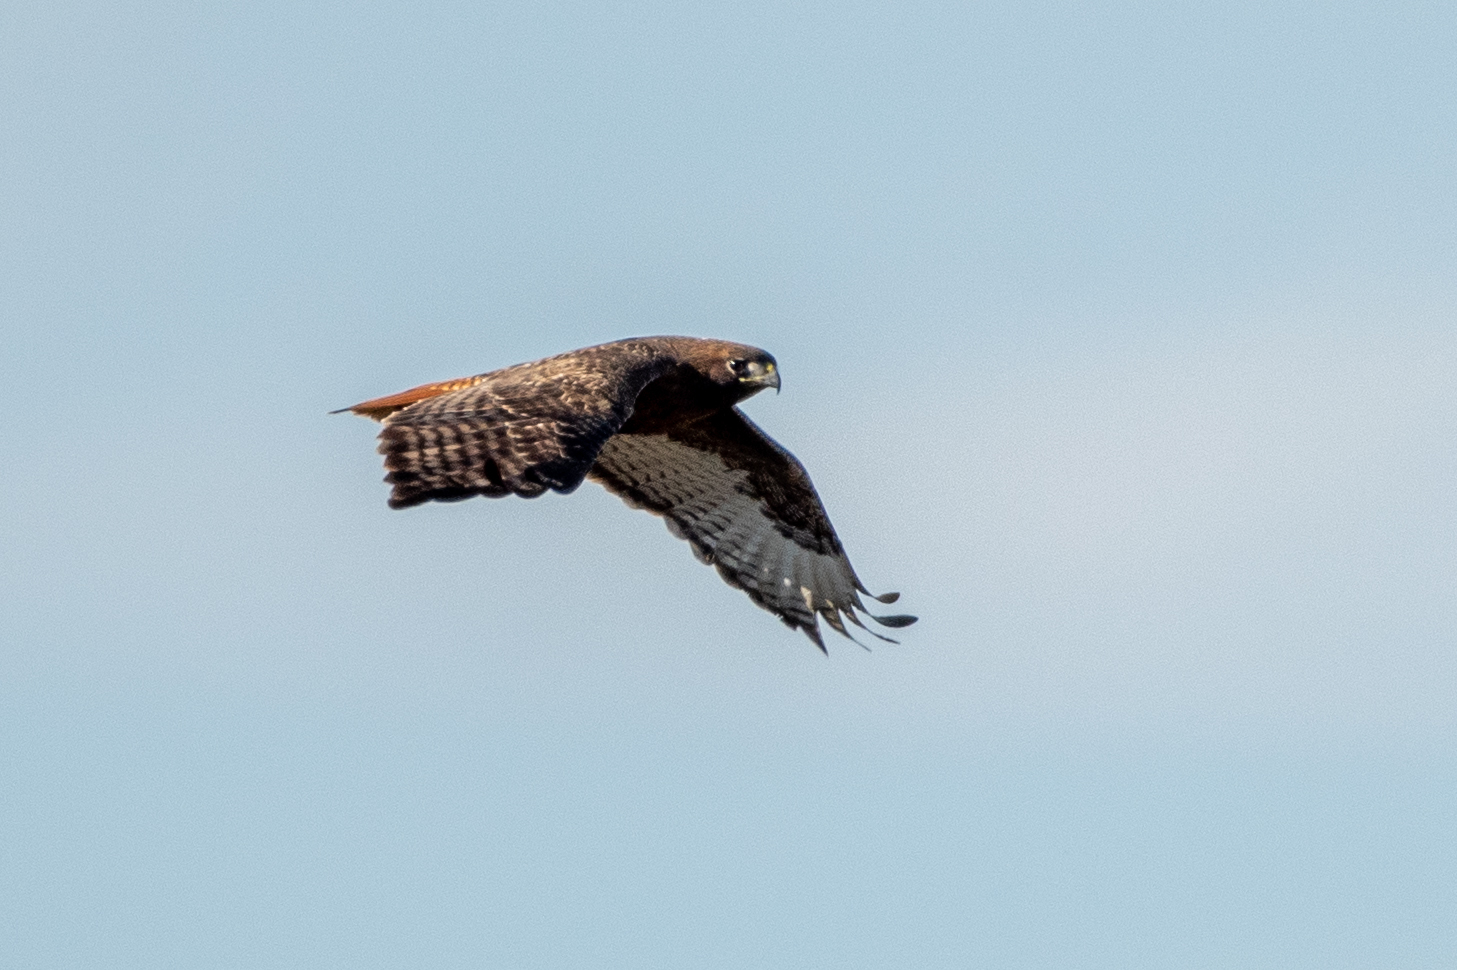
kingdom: Animalia
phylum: Chordata
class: Aves
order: Accipitriformes
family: Accipitridae
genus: Buteo
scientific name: Buteo jamaicensis
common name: Red-tailed hawk
